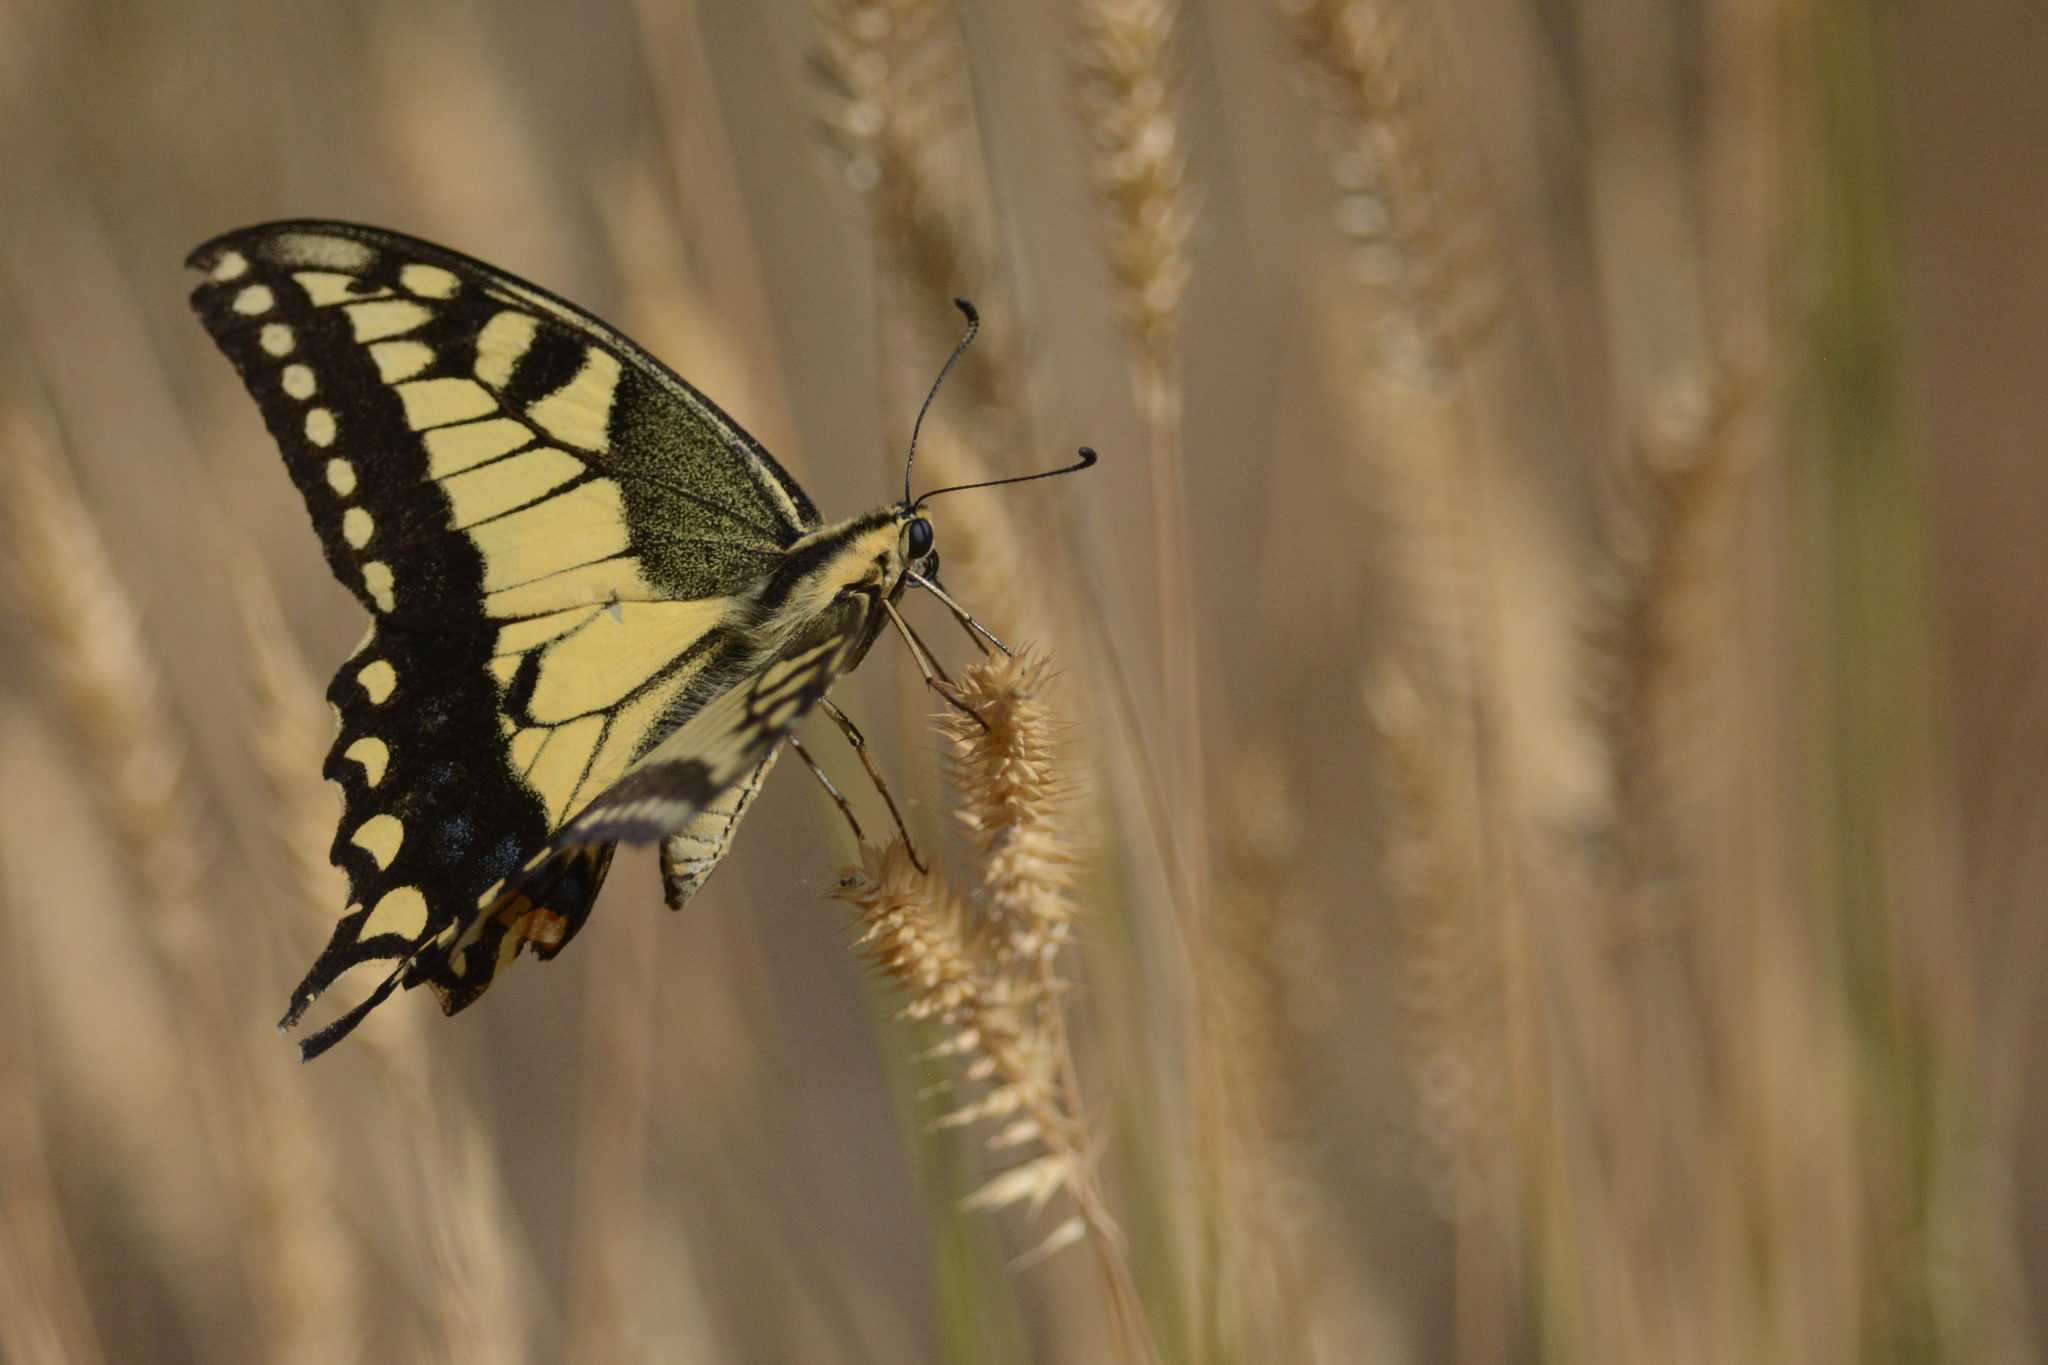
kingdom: Animalia
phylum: Arthropoda
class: Insecta
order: Lepidoptera
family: Papilionidae
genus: Papilio
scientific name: Papilio
